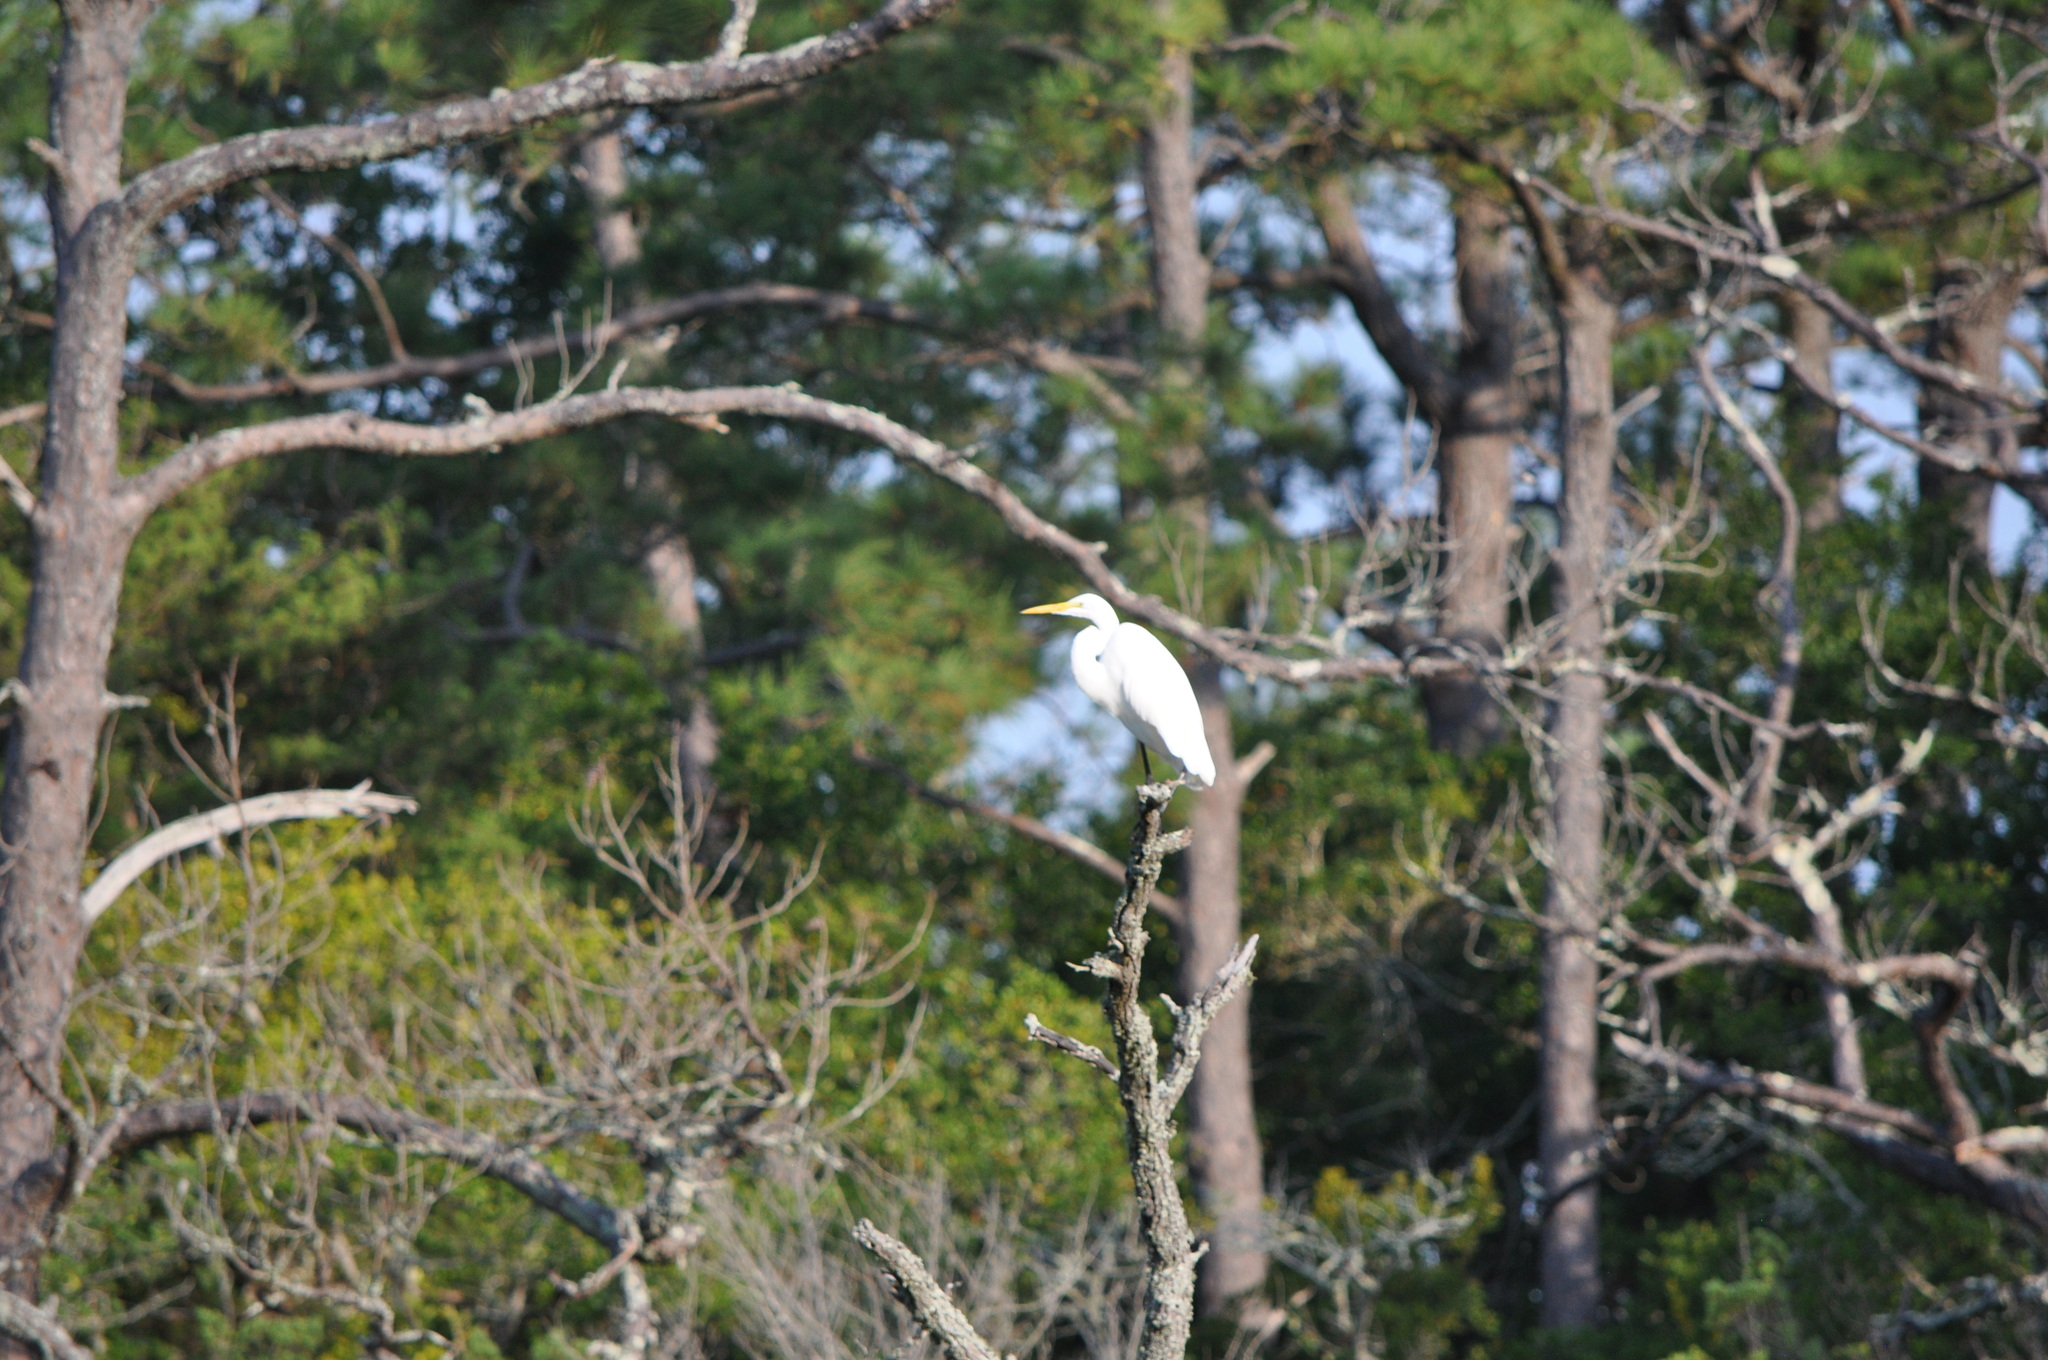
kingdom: Animalia
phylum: Chordata
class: Aves
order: Pelecaniformes
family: Ardeidae
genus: Ardea
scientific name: Ardea alba
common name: Great egret
